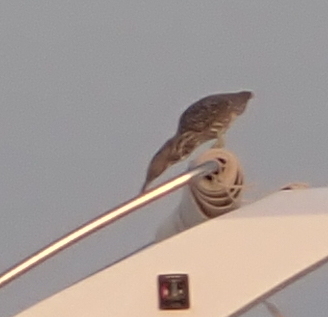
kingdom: Animalia
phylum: Chordata
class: Aves
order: Pelecaniformes
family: Ardeidae
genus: Butorides
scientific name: Butorides striata
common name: Striated heron
